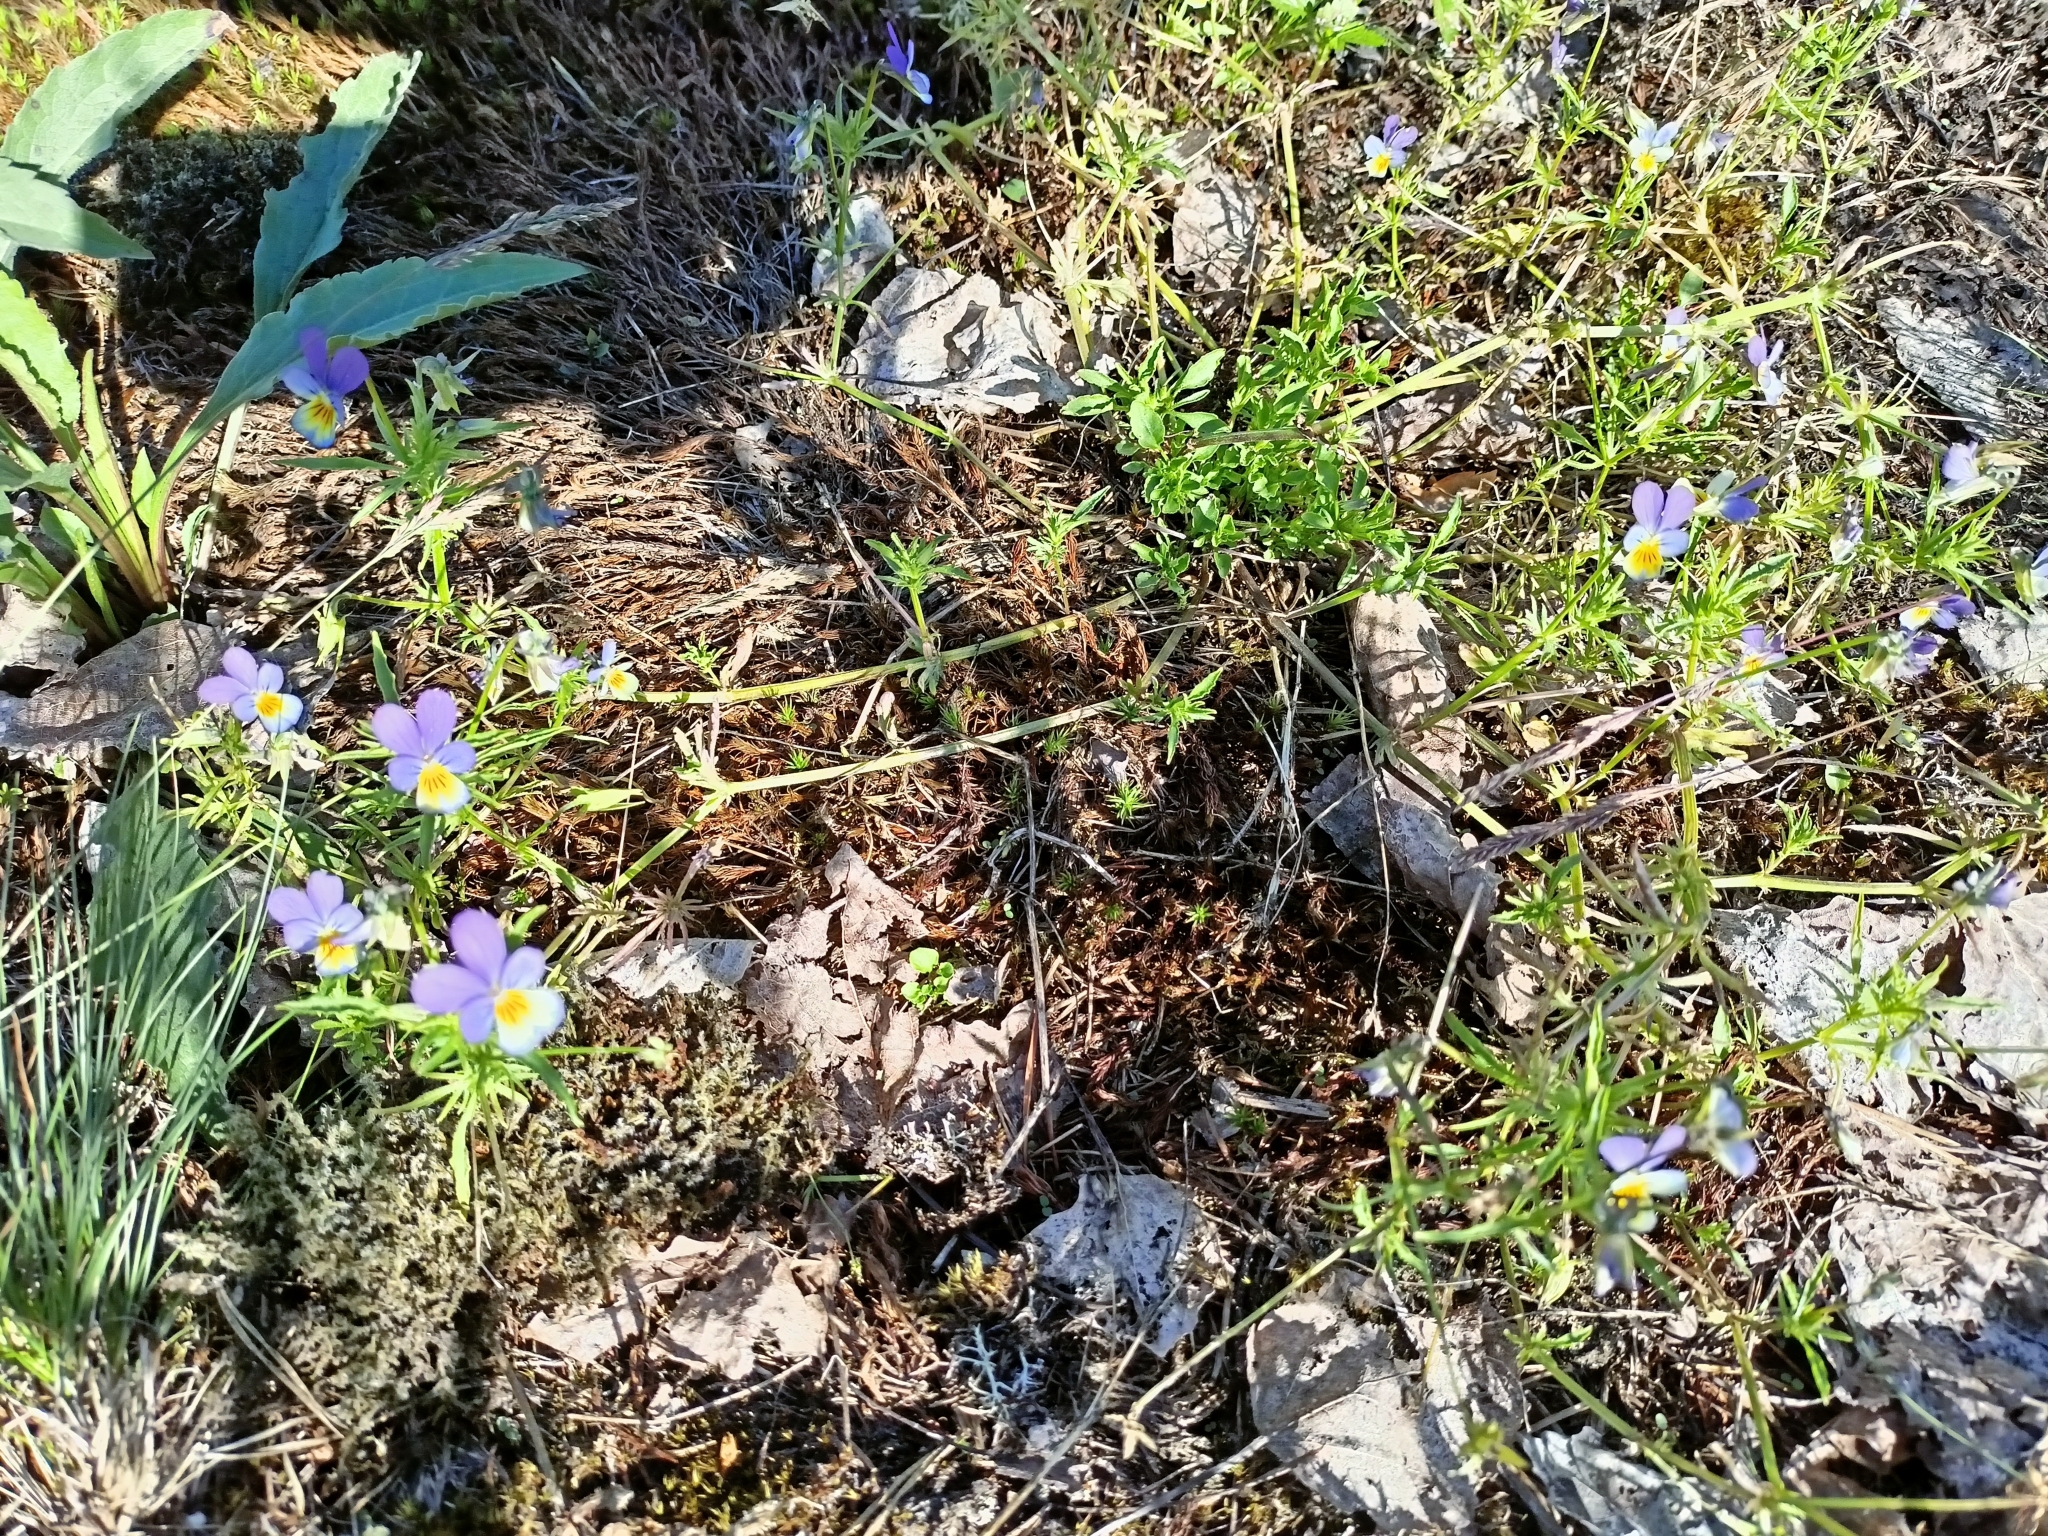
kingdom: Plantae
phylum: Tracheophyta
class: Magnoliopsida
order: Malpighiales
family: Violaceae
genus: Viola
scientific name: Viola tricolor
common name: Pansy
